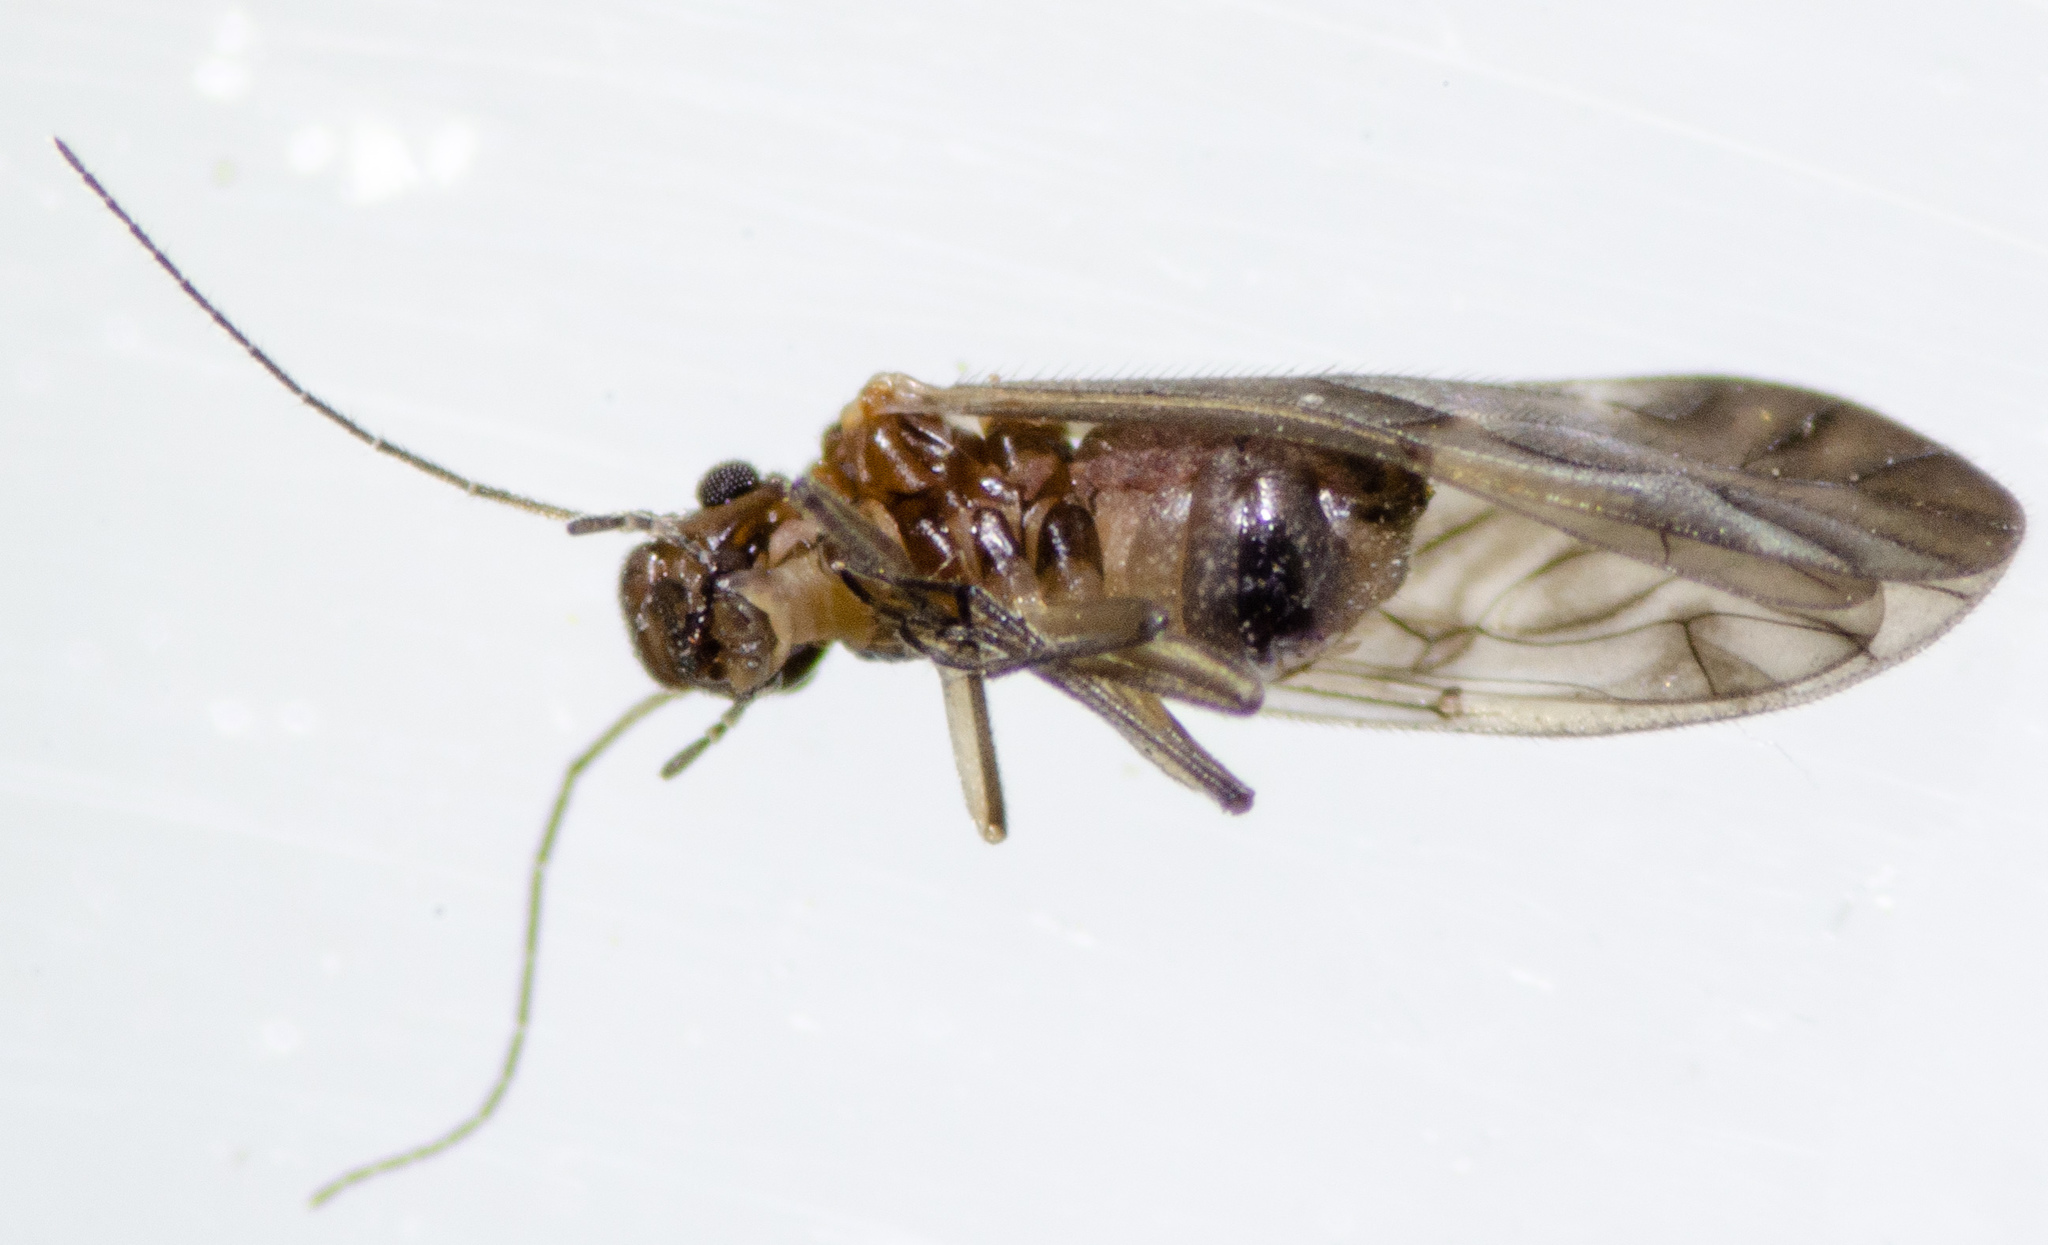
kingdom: Animalia
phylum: Arthropoda
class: Insecta
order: Psocodea
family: Caeciliusidae
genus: Maoripsocus
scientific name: Maoripsocus semifuscatus
